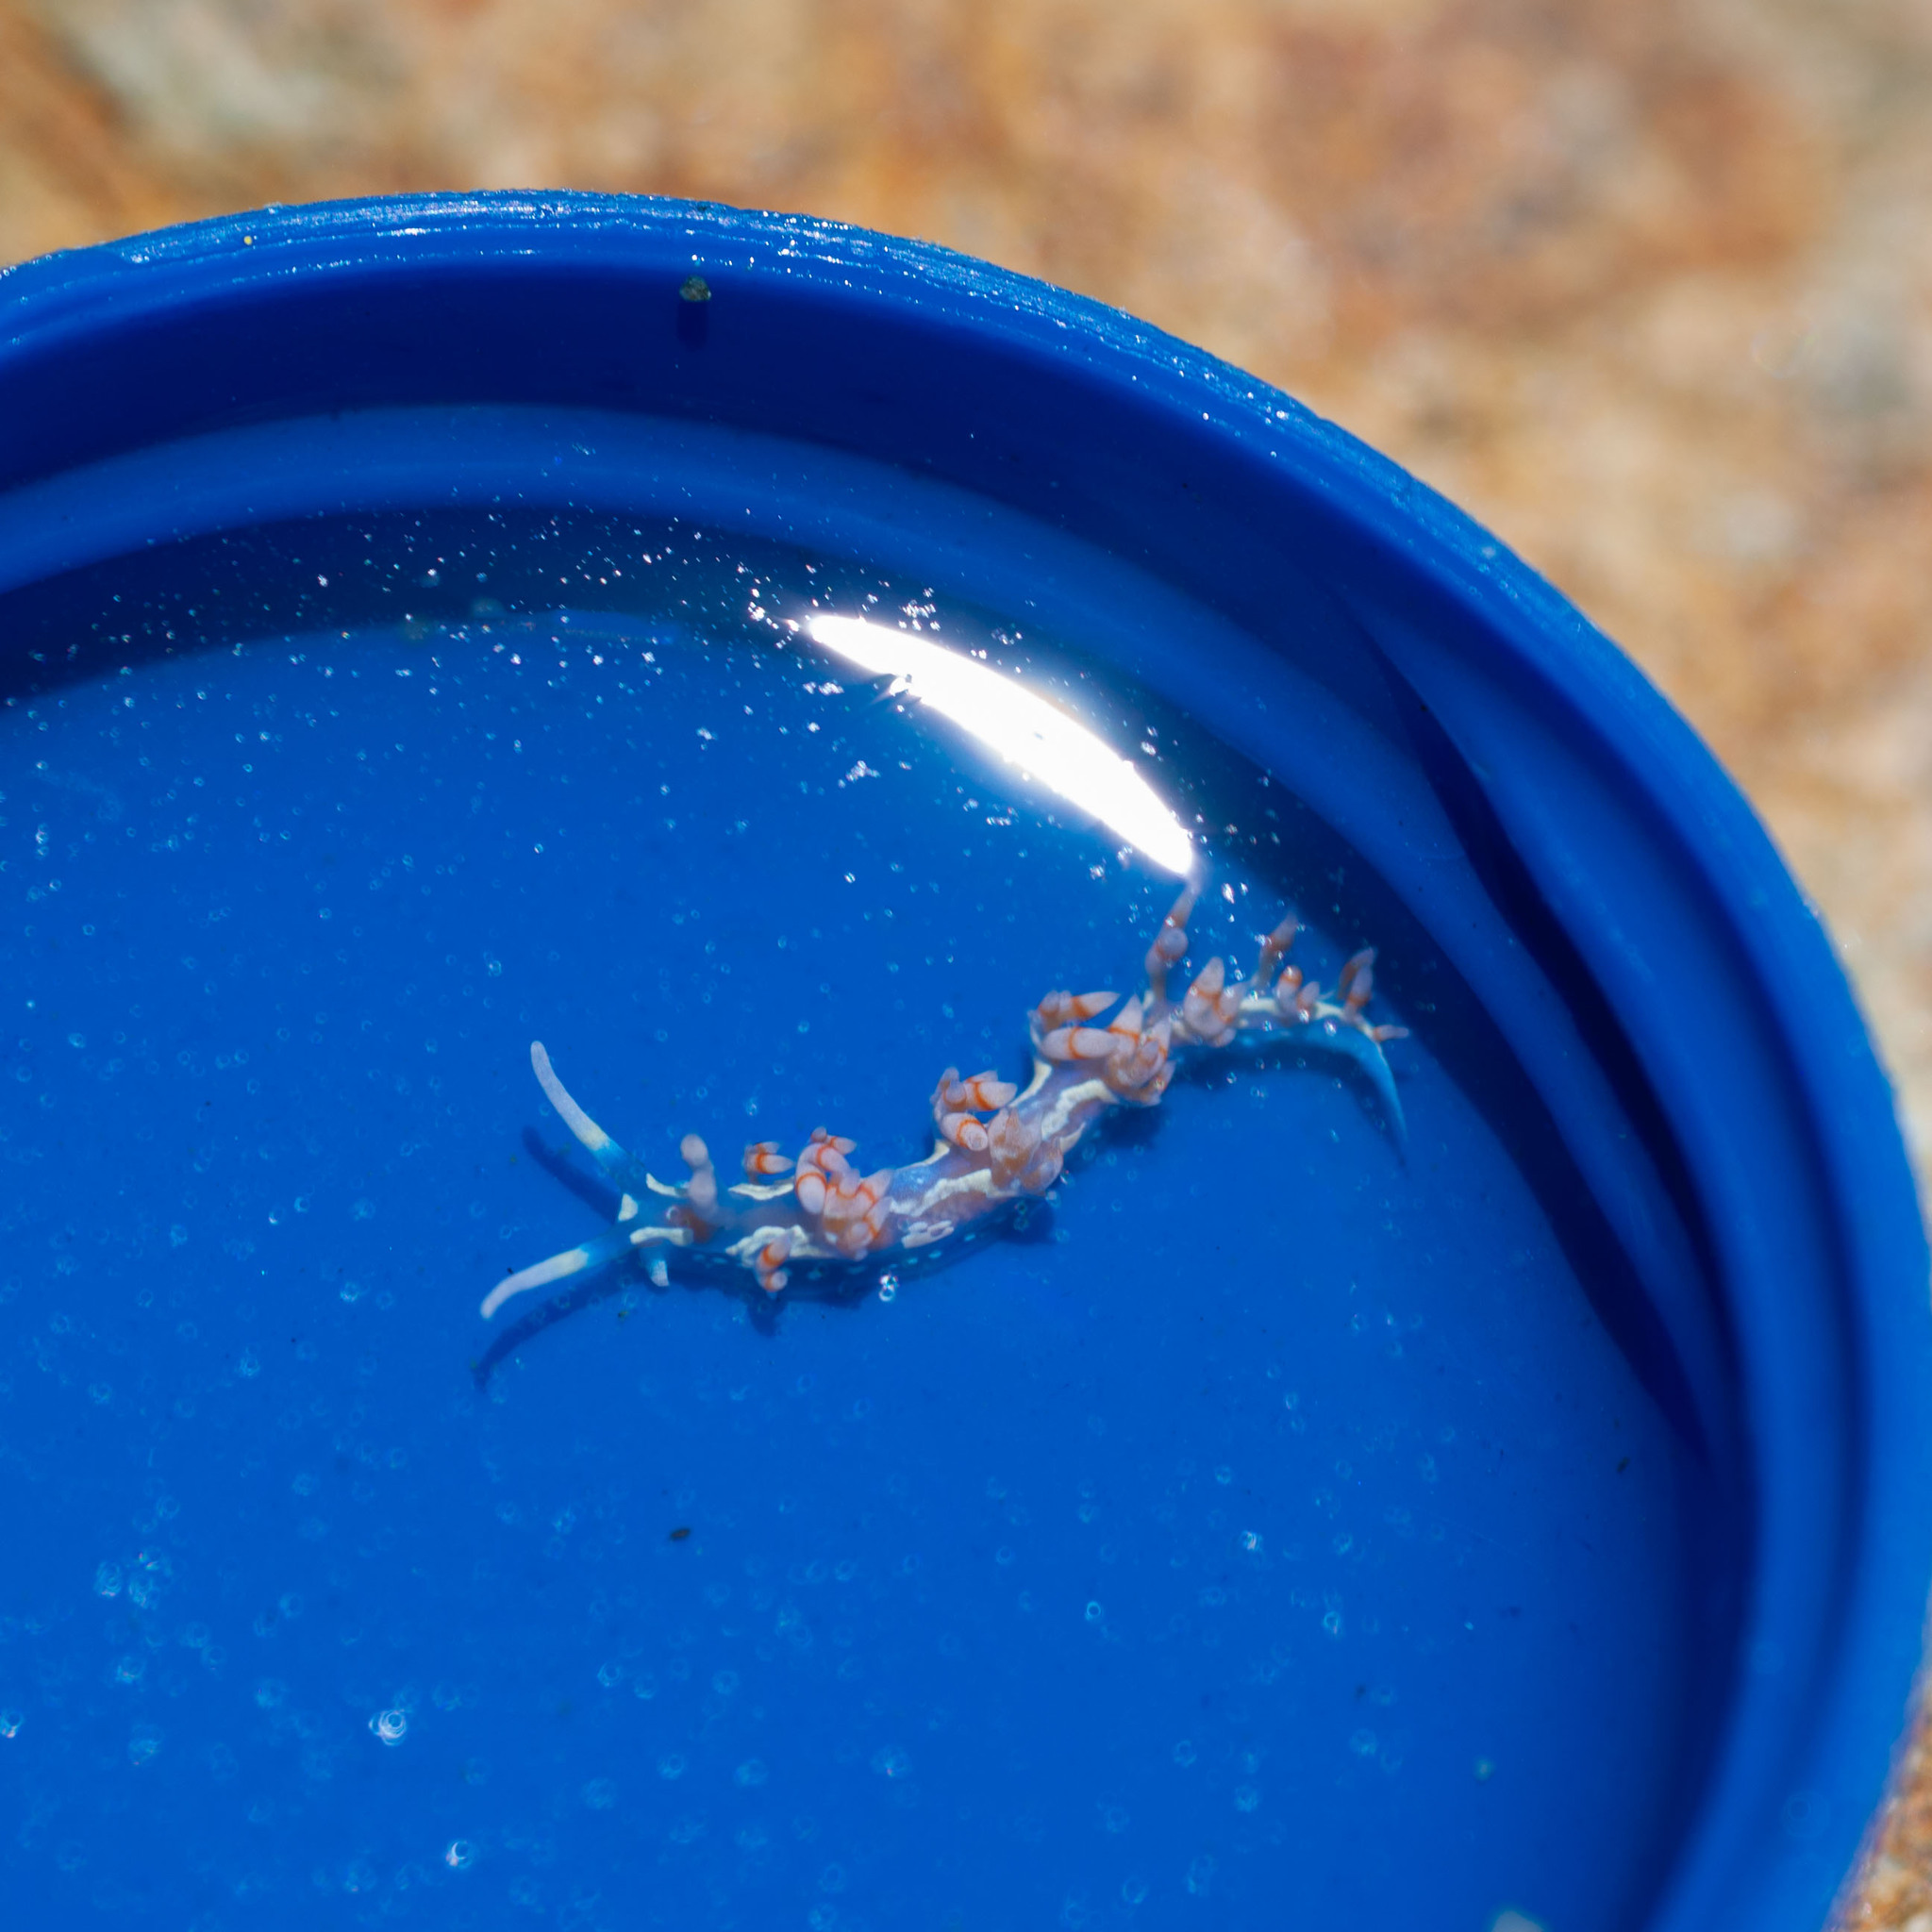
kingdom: Animalia
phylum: Mollusca
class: Gastropoda
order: Nudibranchia
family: Flabellinidae
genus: Flabellina
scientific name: Flabellina engeli
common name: Engel's flabellina
